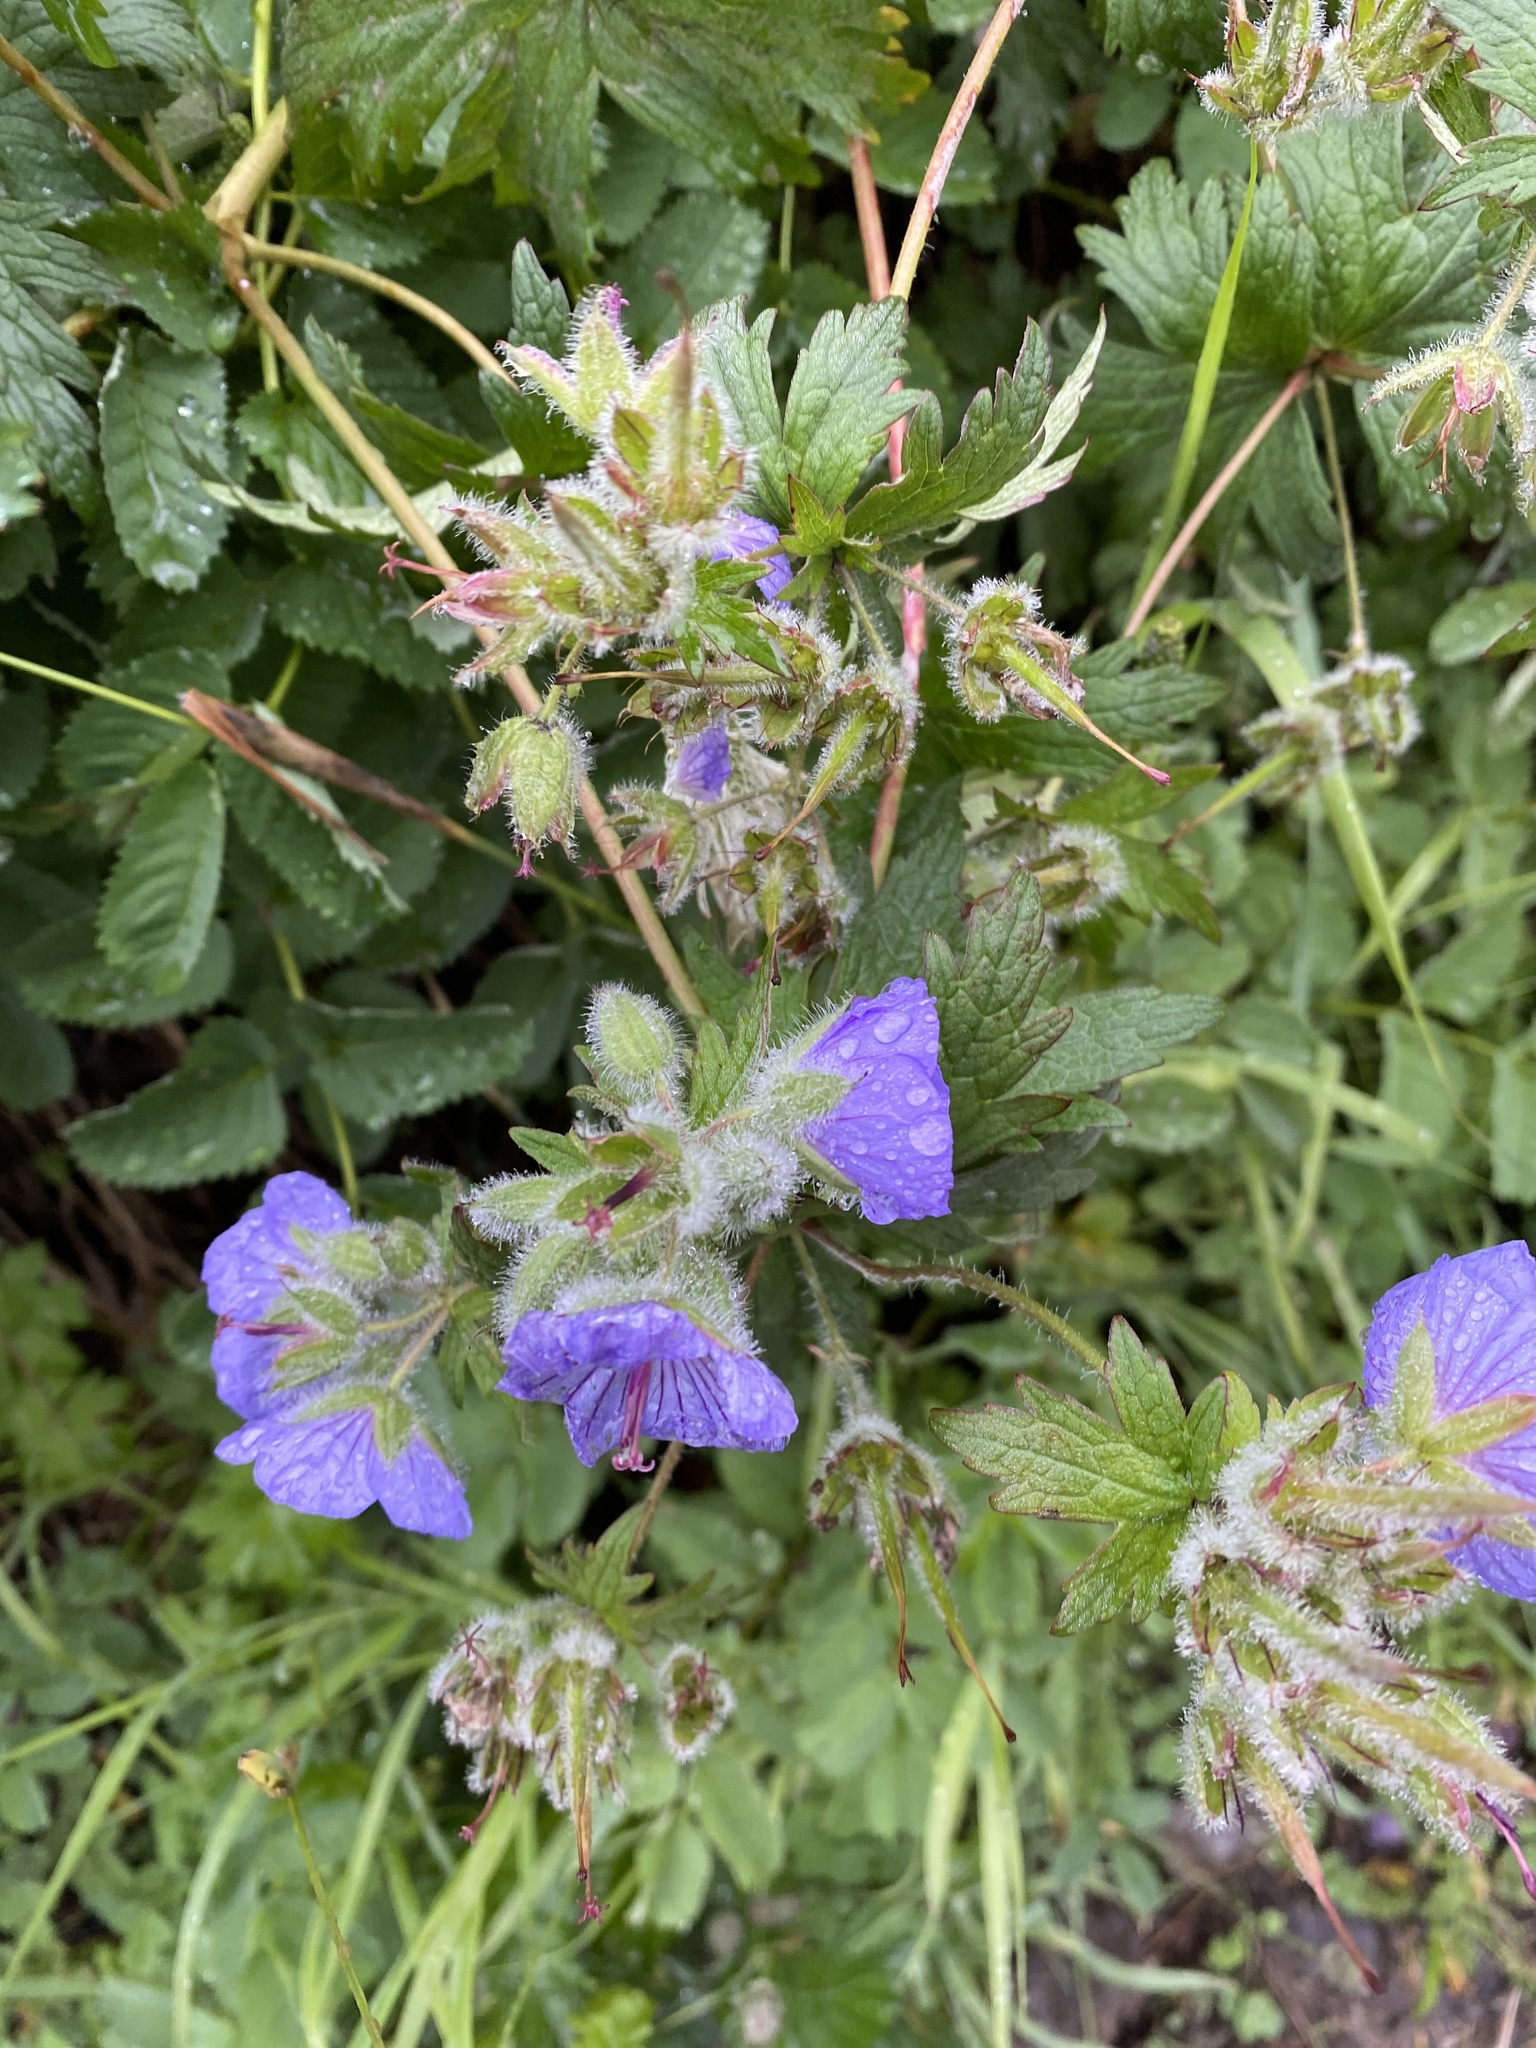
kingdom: Plantae
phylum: Tracheophyta
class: Magnoliopsida
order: Geraniales
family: Geraniaceae
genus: Geranium
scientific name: Geranium erianthum
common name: Northern crane's-bill
